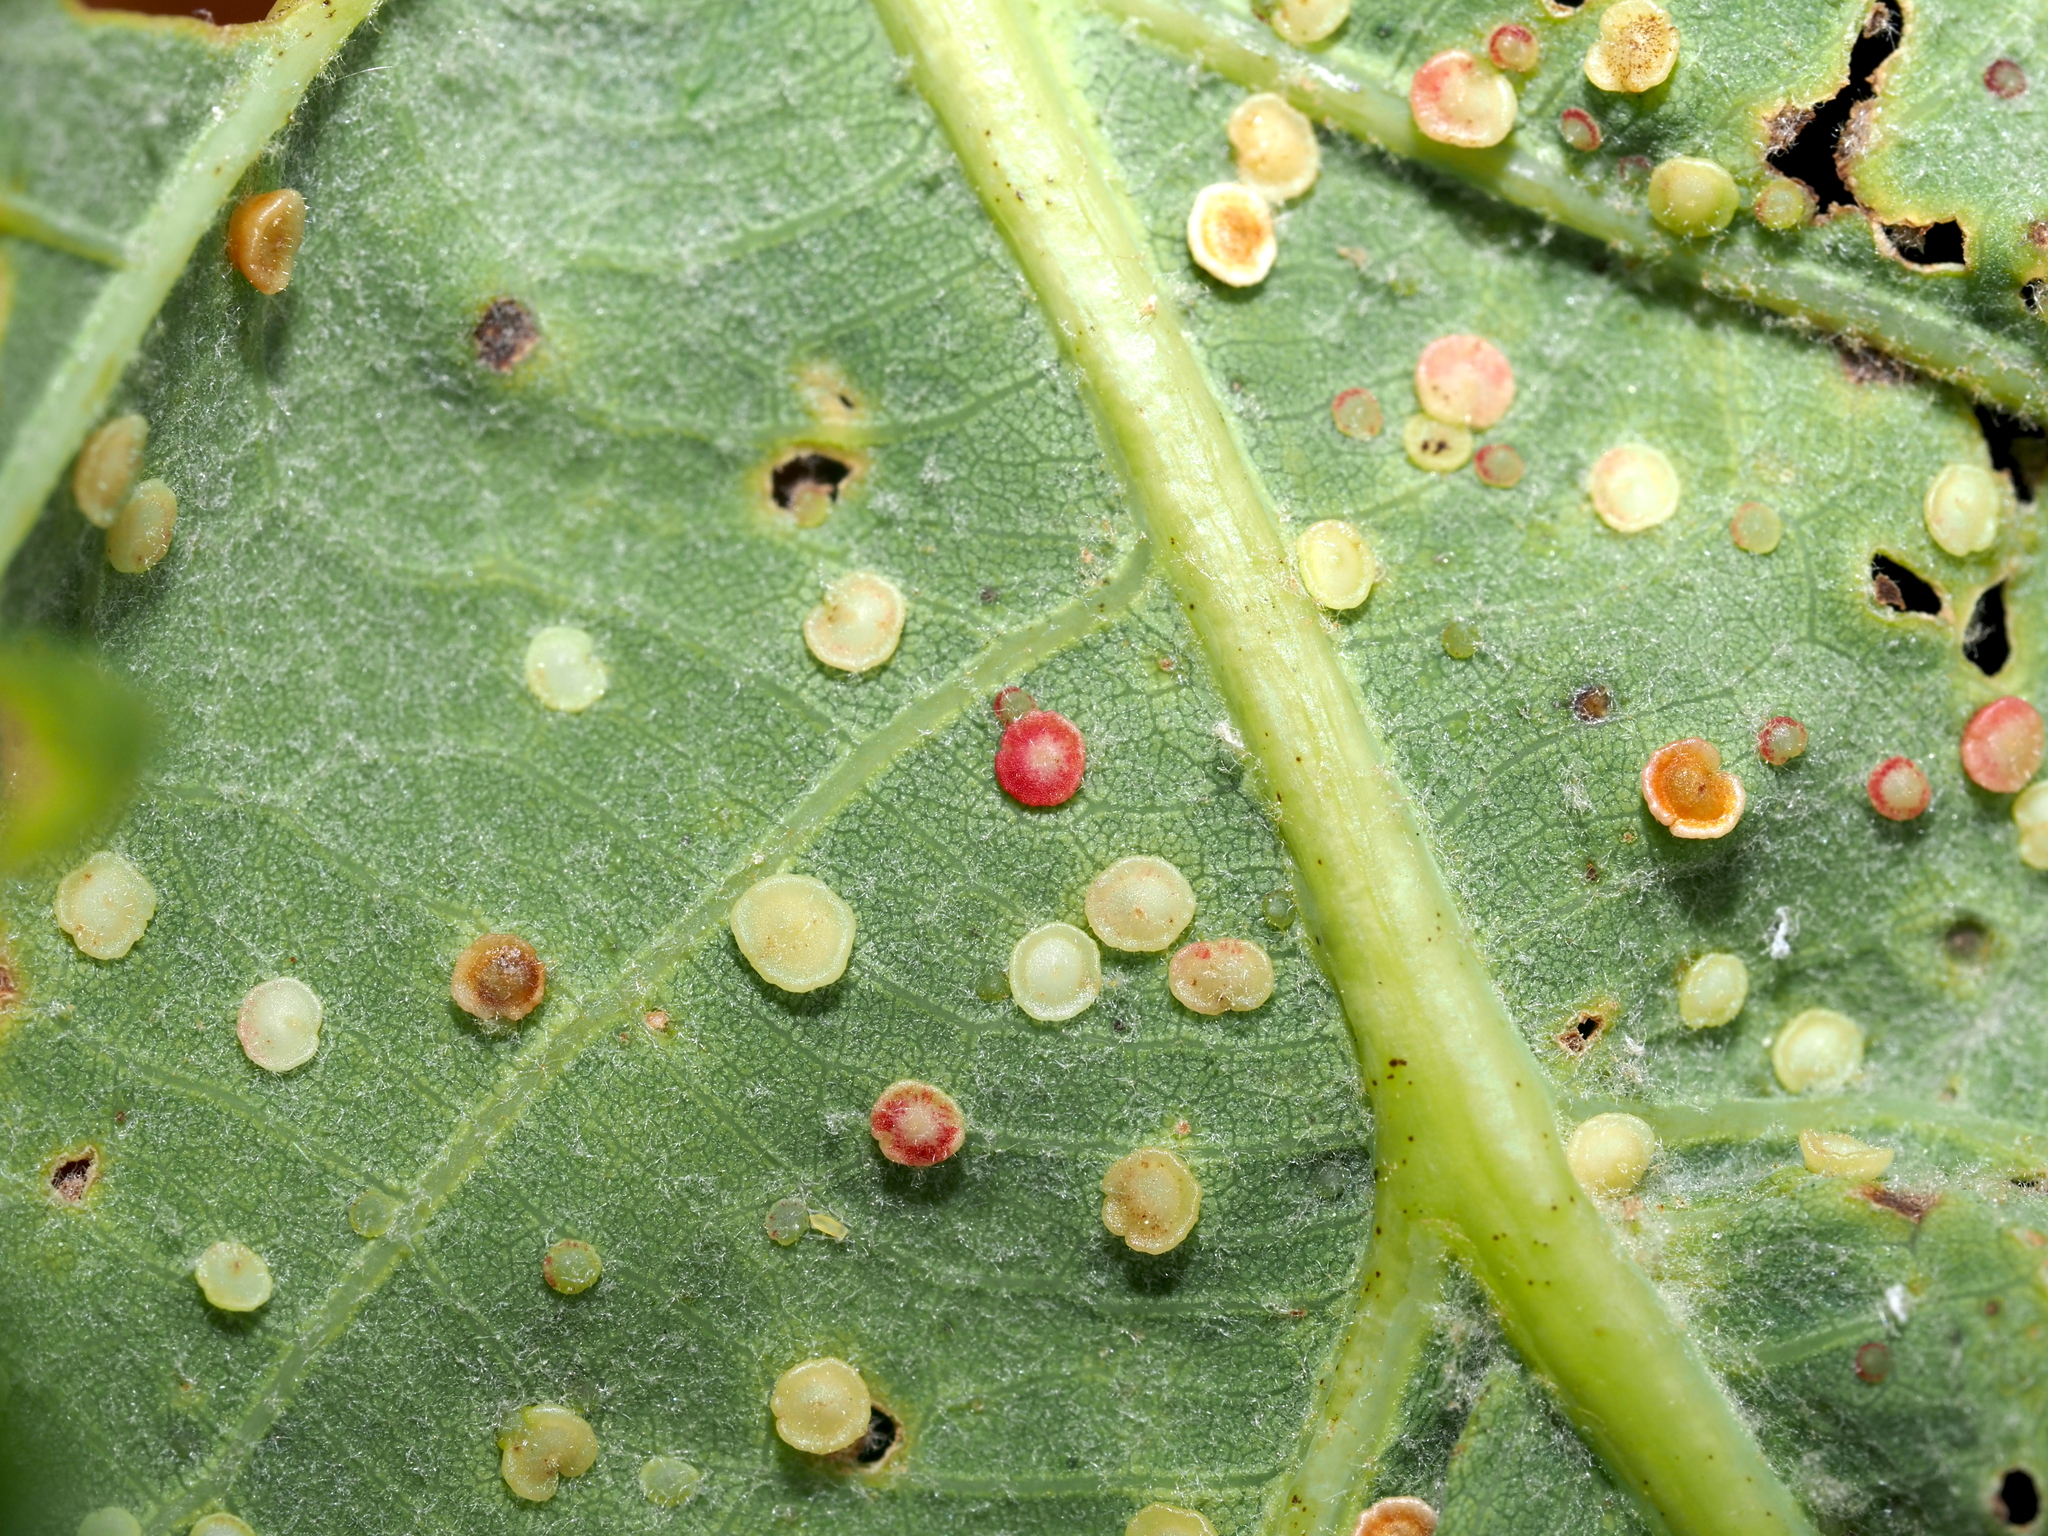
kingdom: Animalia
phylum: Arthropoda
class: Insecta
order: Hymenoptera
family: Cynipidae
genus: Neuroterus
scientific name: Neuroterus
